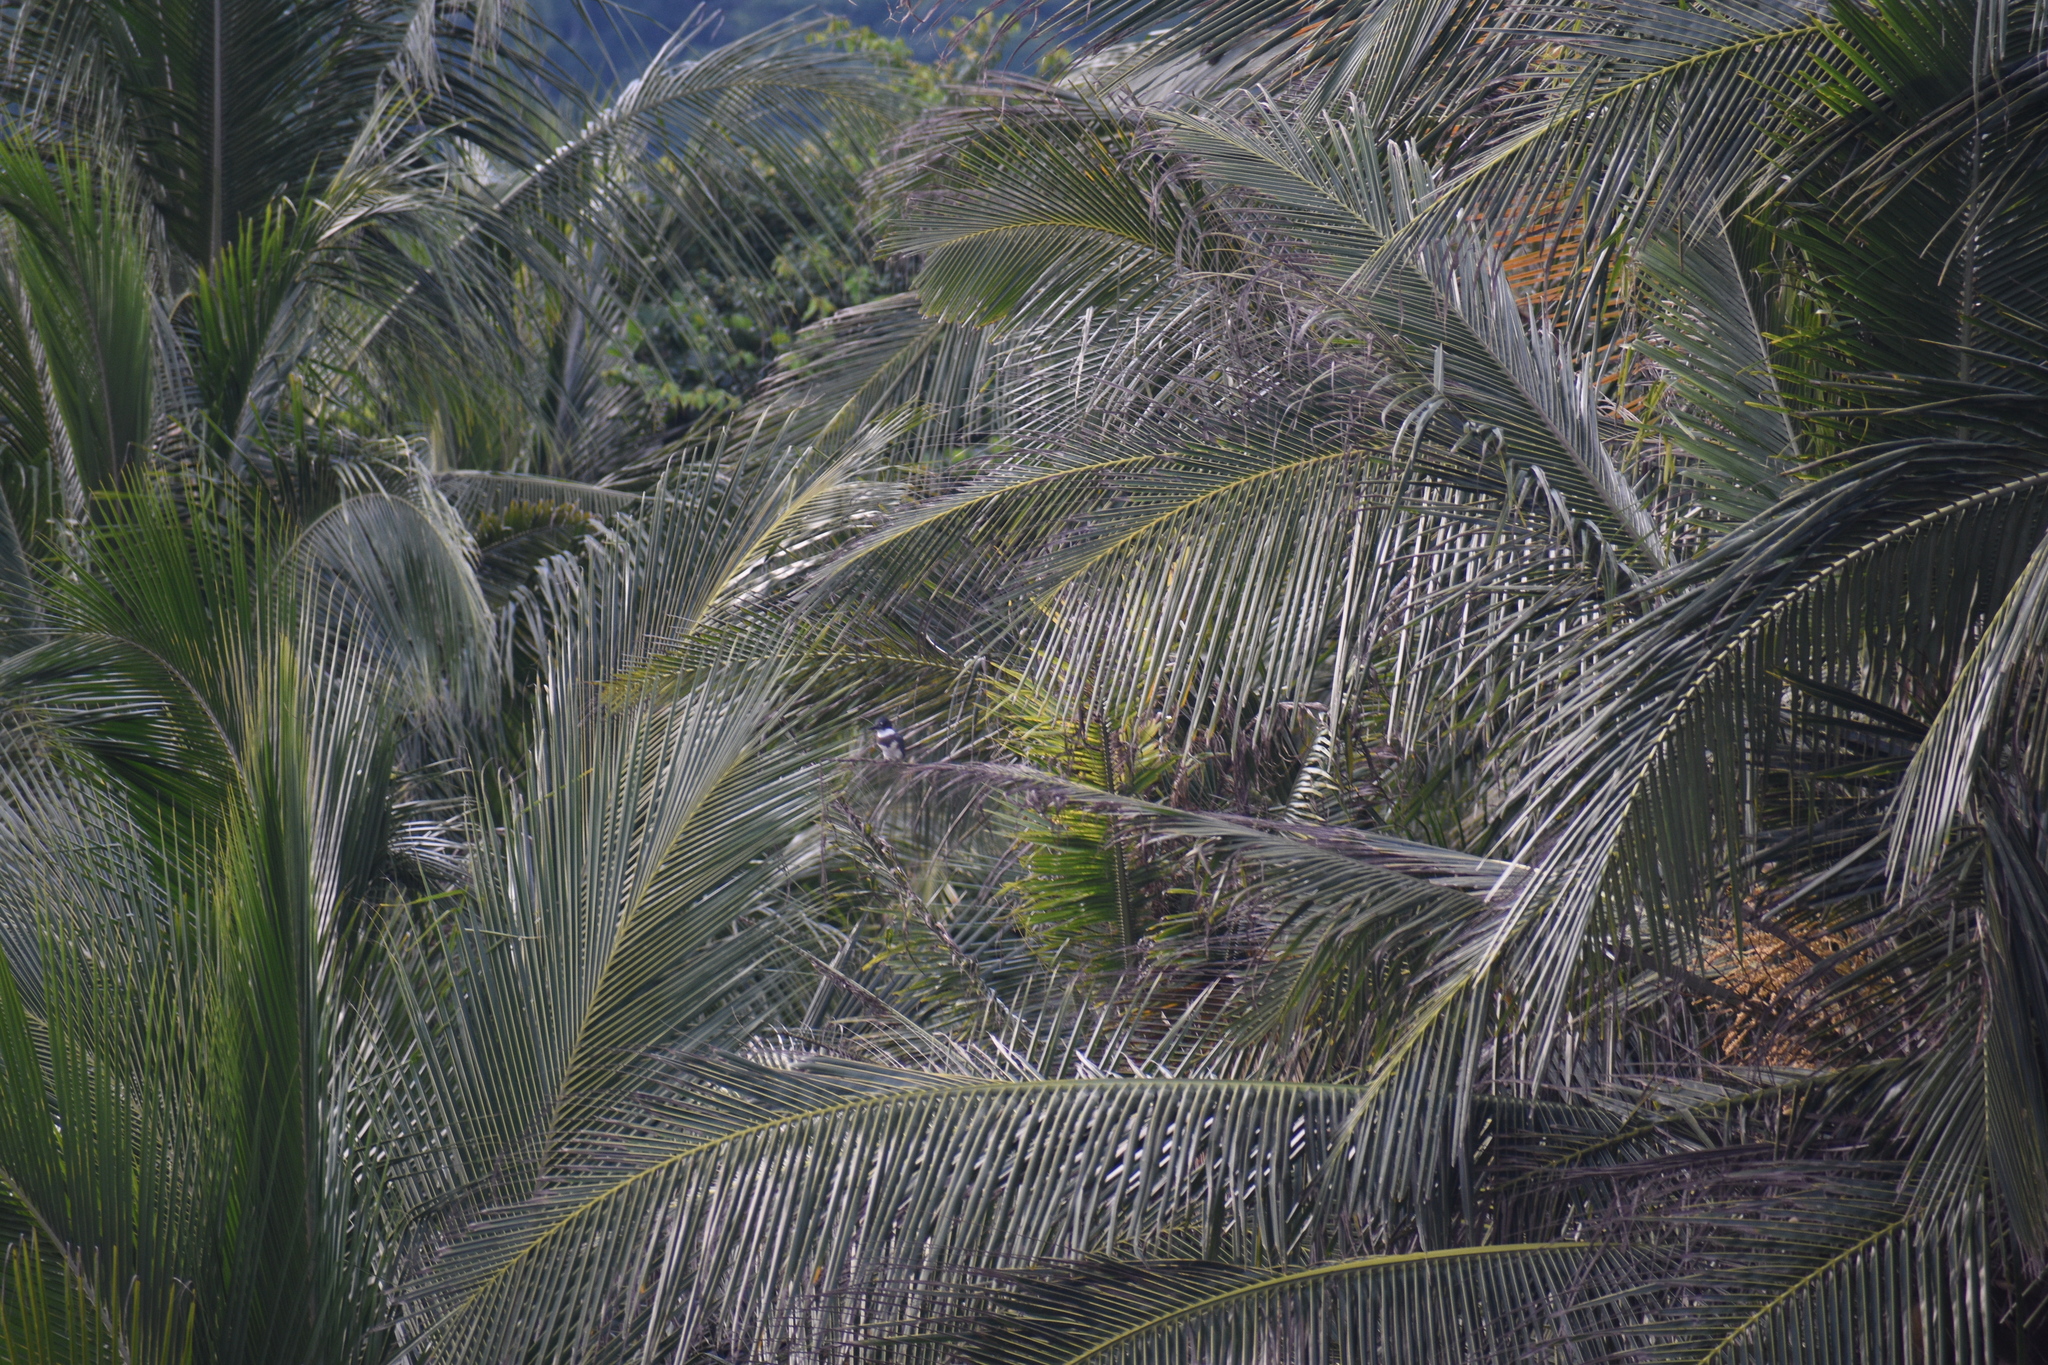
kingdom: Animalia
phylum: Chordata
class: Aves
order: Coraciiformes
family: Alcedinidae
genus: Megaceryle
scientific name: Megaceryle torquata
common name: Ringed kingfisher
